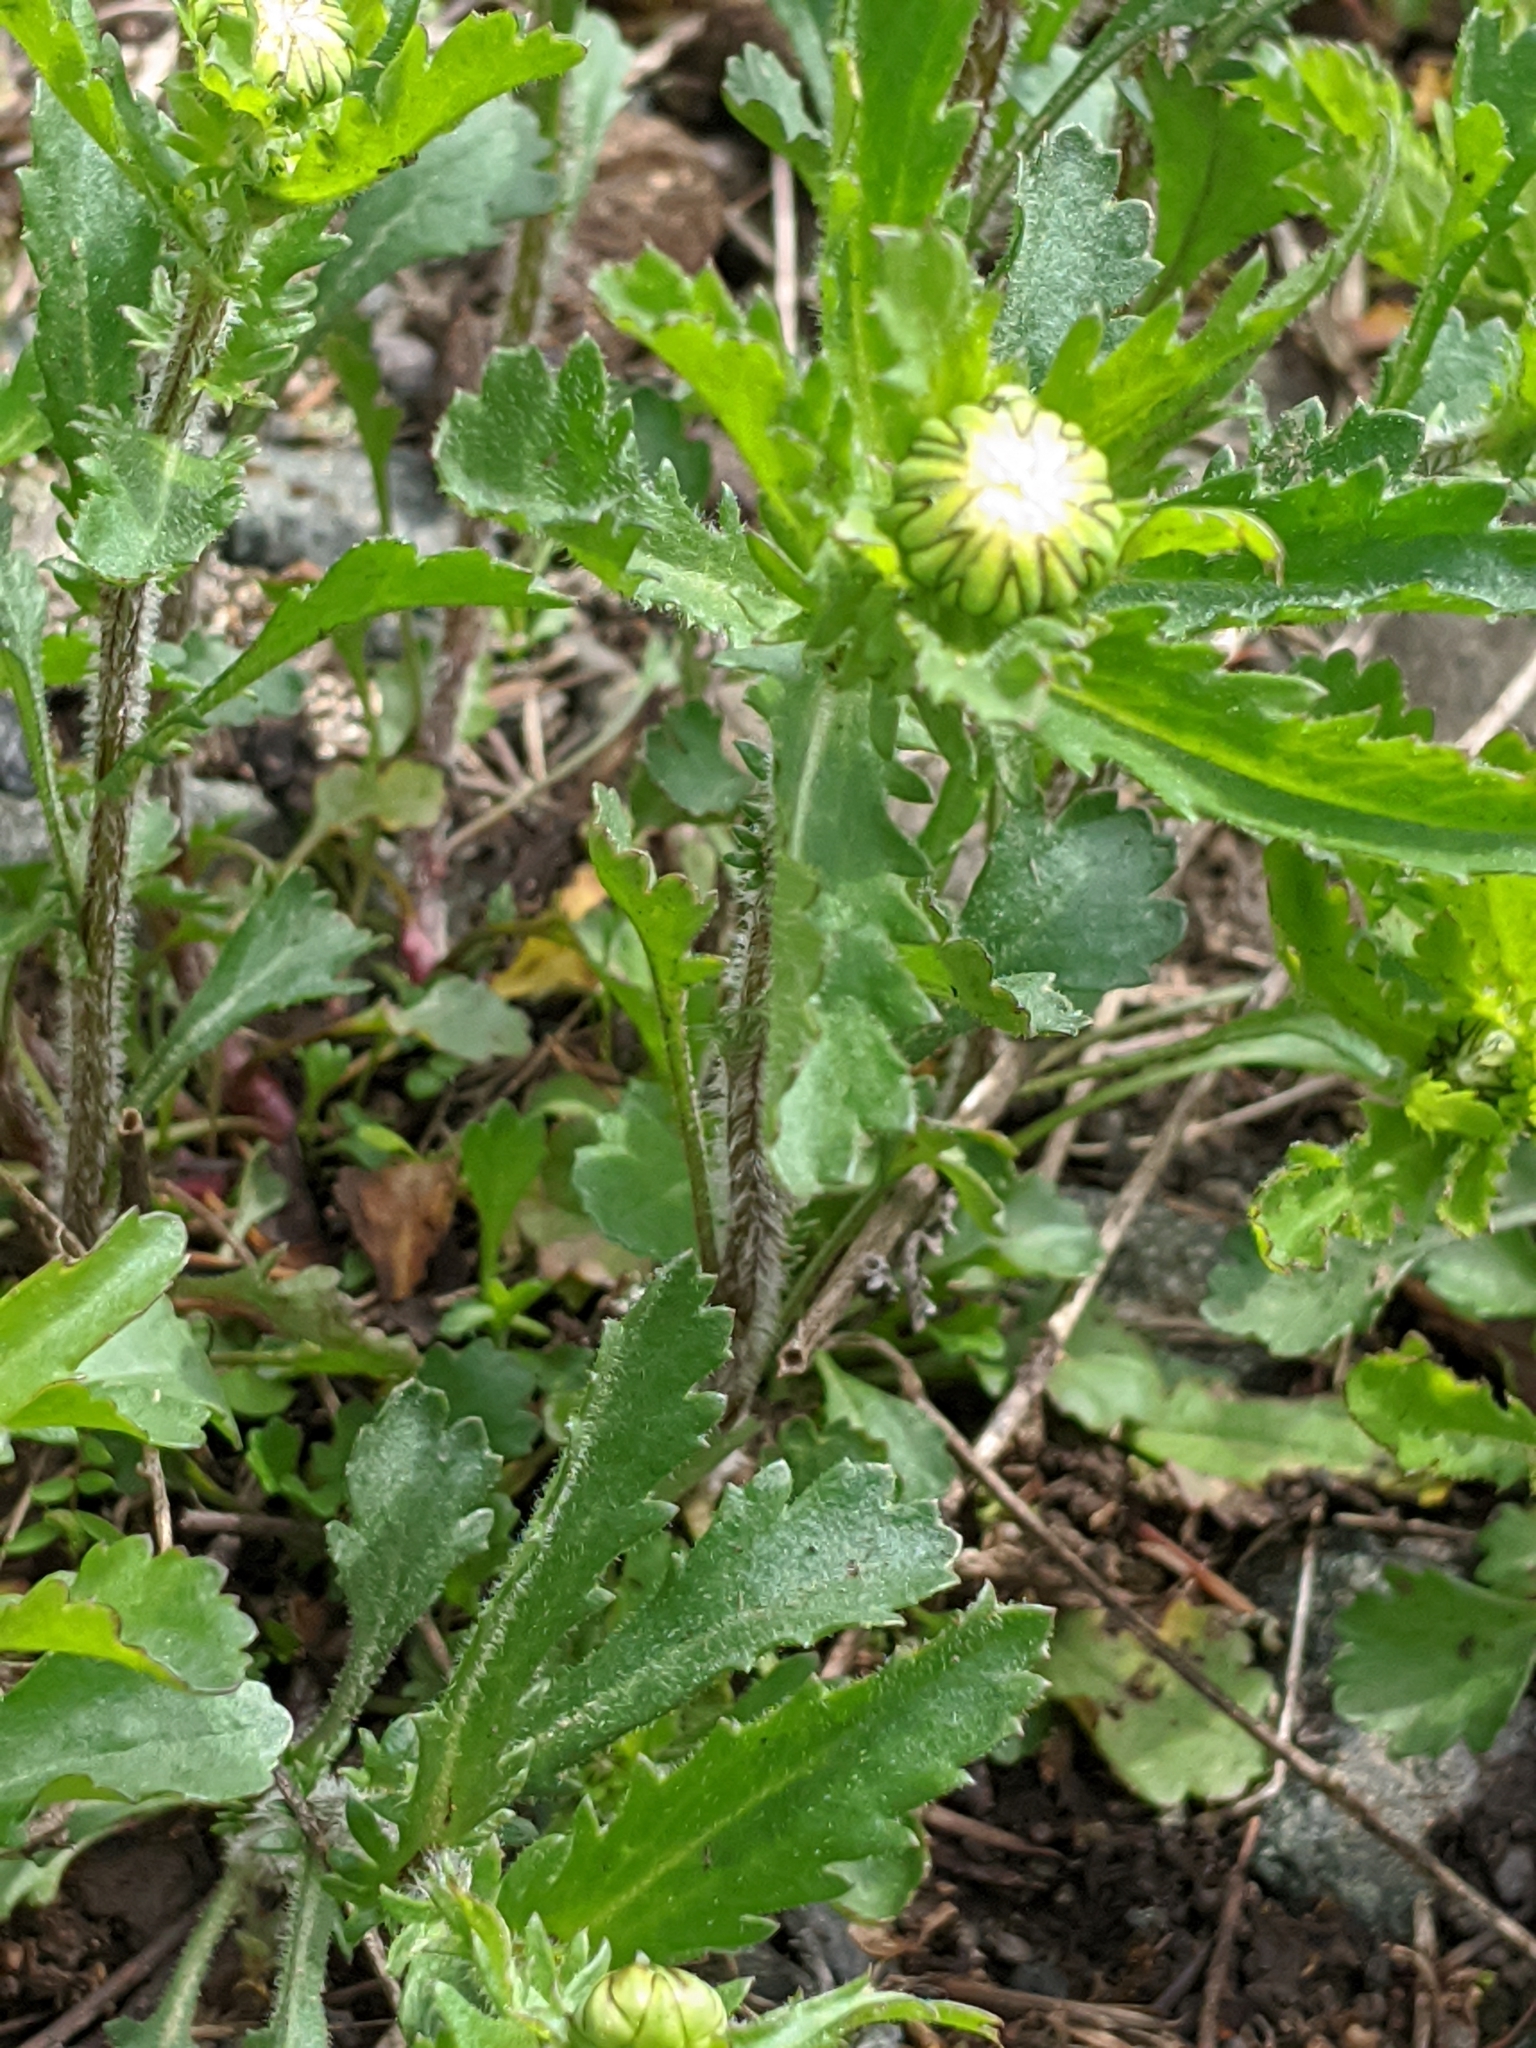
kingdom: Plantae
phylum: Tracheophyta
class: Magnoliopsida
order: Asterales
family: Asteraceae
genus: Leucanthemum
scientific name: Leucanthemum vulgare
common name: Oxeye daisy
